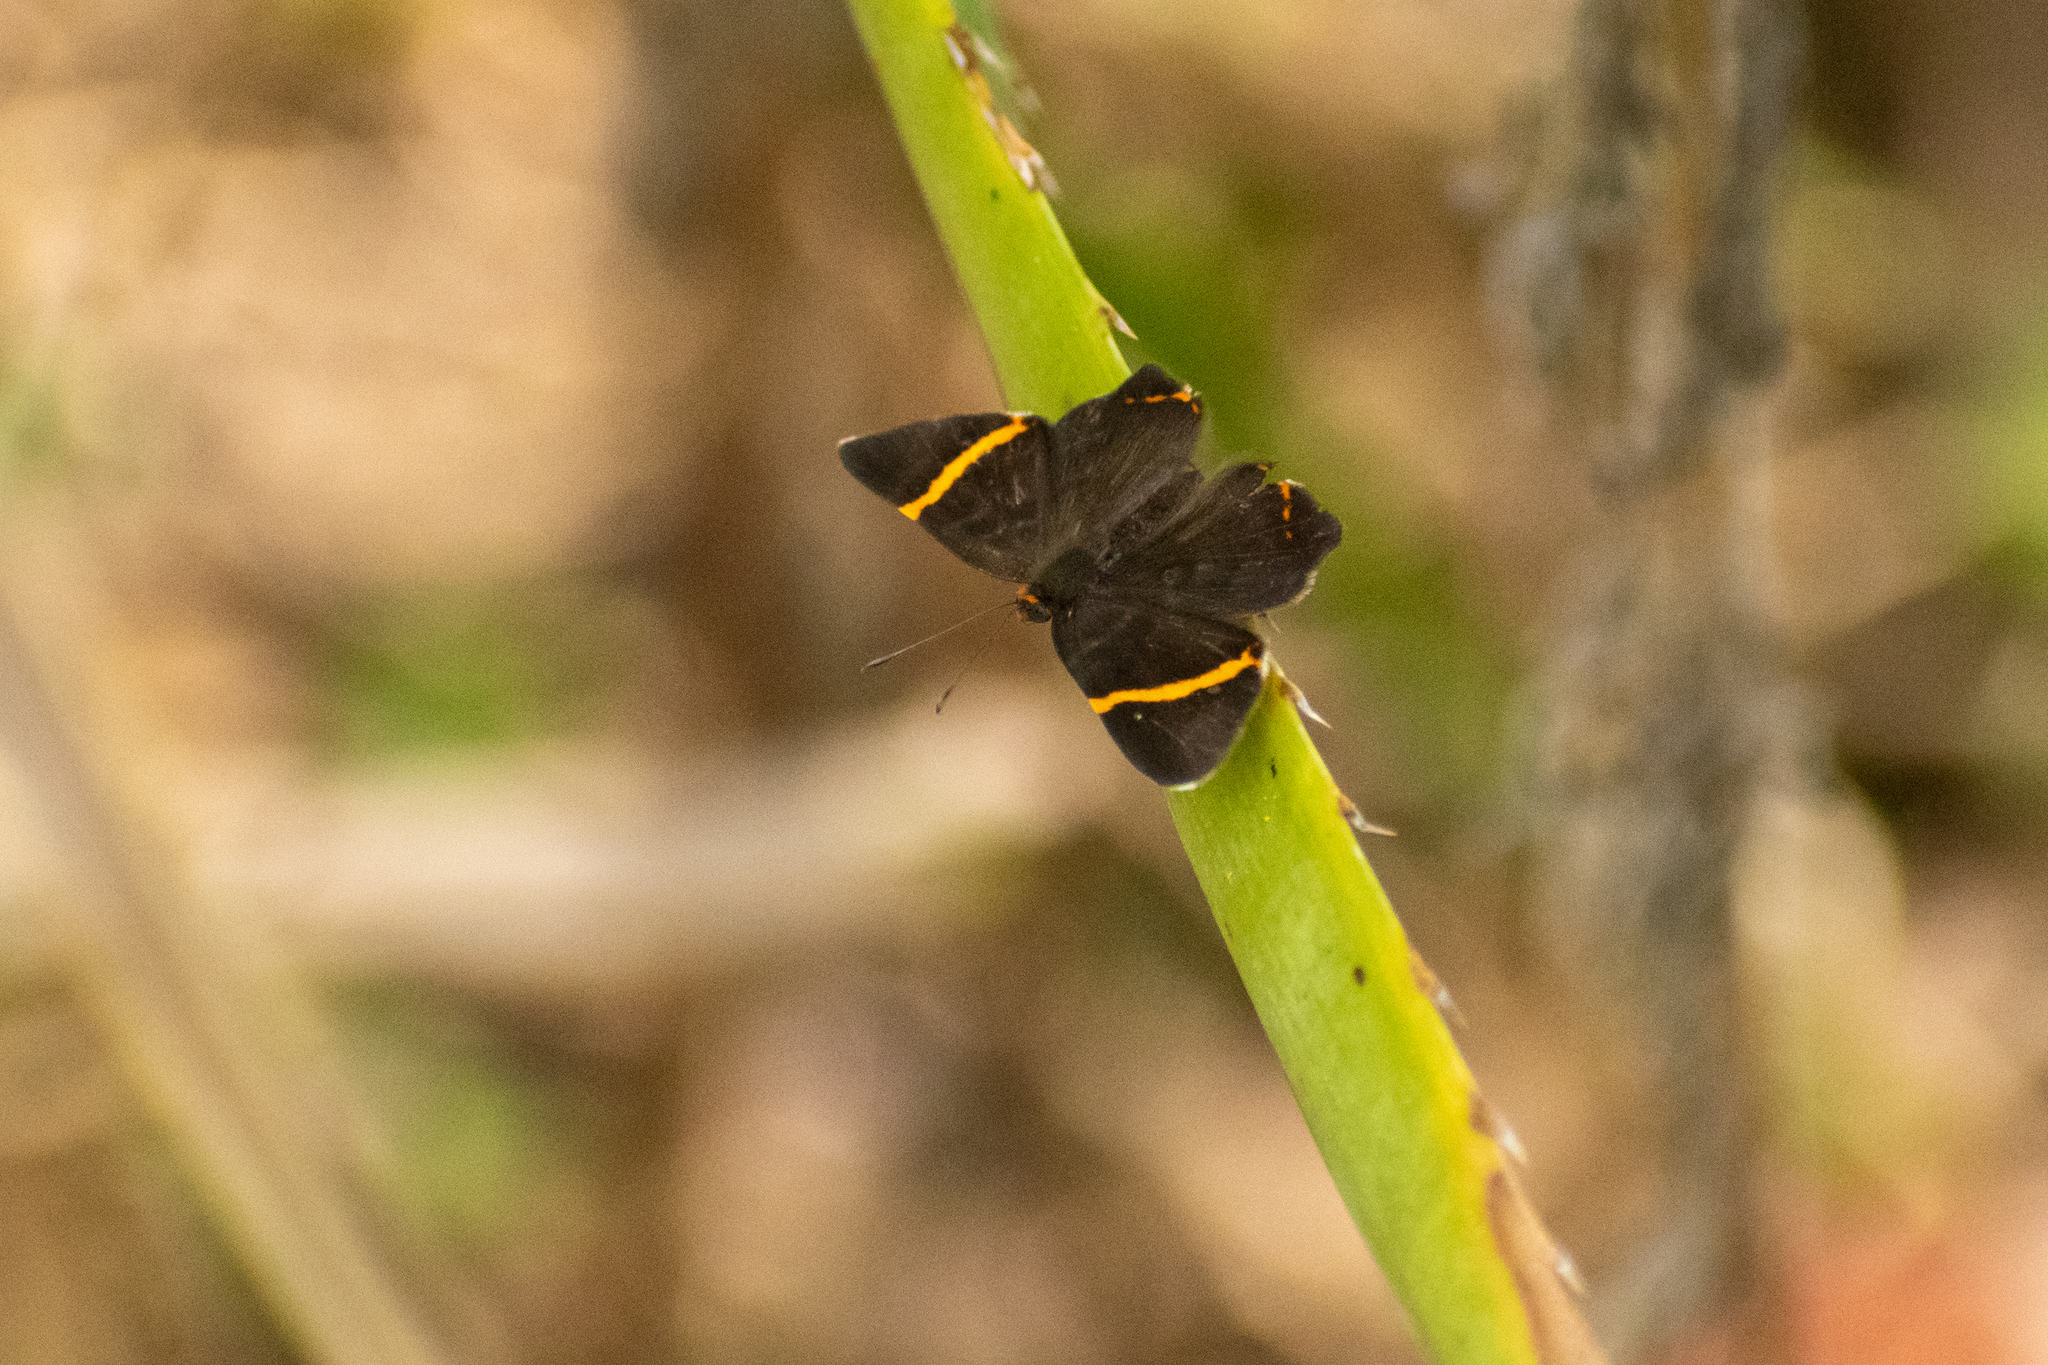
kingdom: Animalia
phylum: Arthropoda
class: Insecta
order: Lepidoptera
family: Riodinidae
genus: Riodina
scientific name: Riodina lysippoides
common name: Little dancer metalmark
